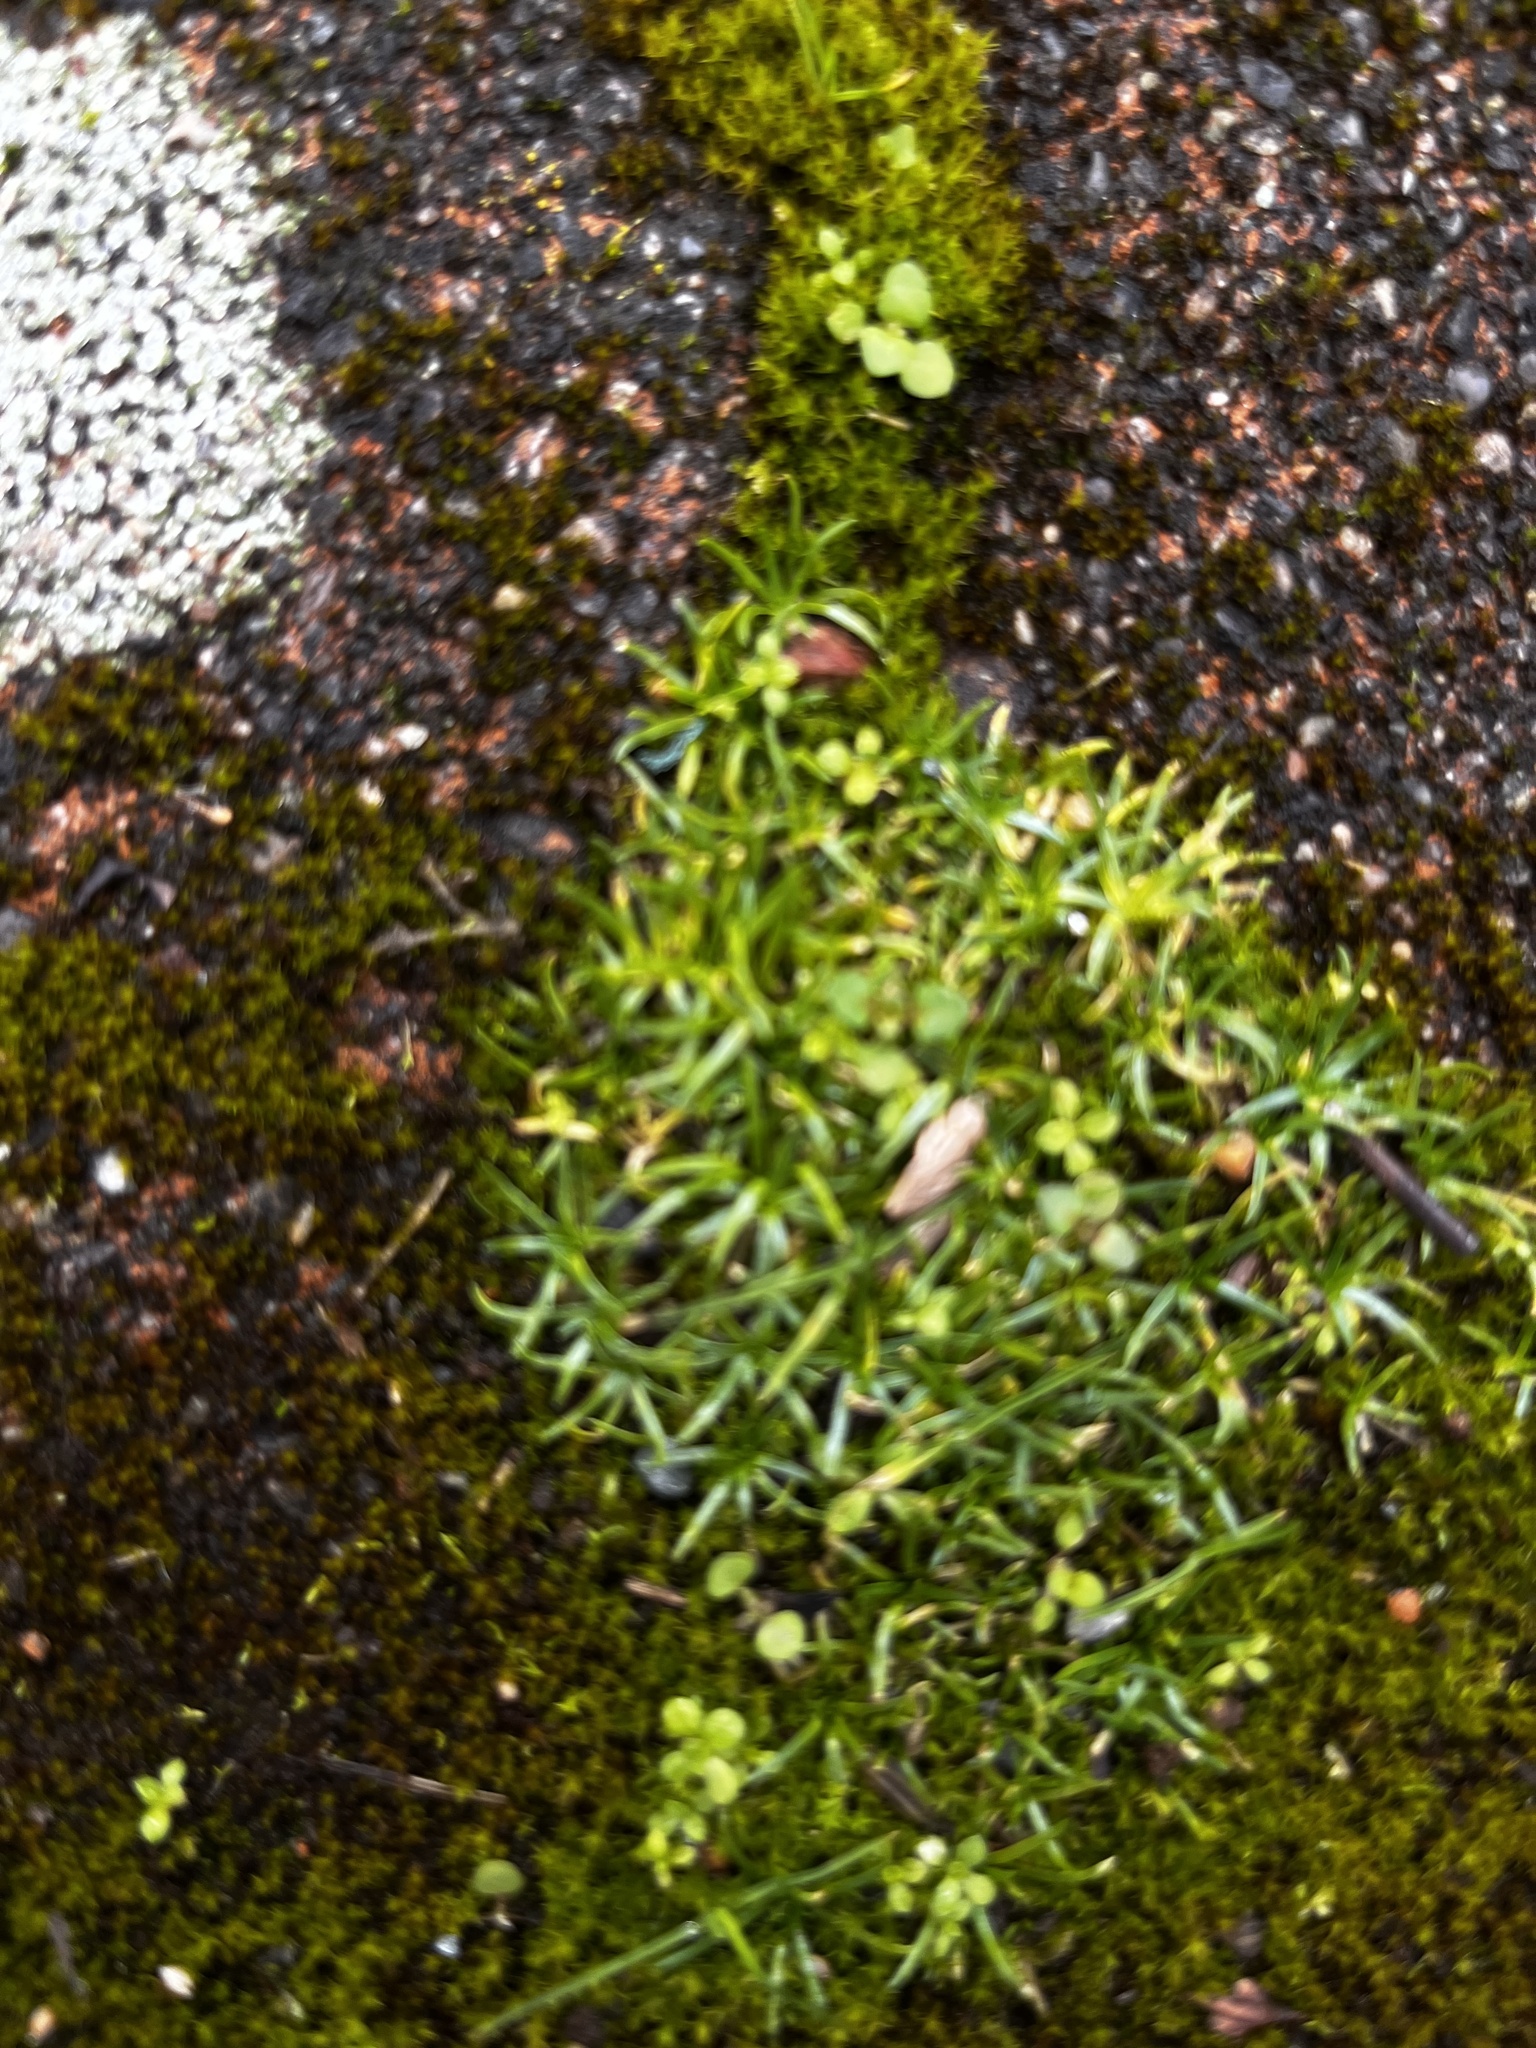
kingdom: Plantae
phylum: Tracheophyta
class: Magnoliopsida
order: Caryophyllales
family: Caryophyllaceae
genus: Sagina
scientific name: Sagina procumbens
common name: Procumbent pearlwort
